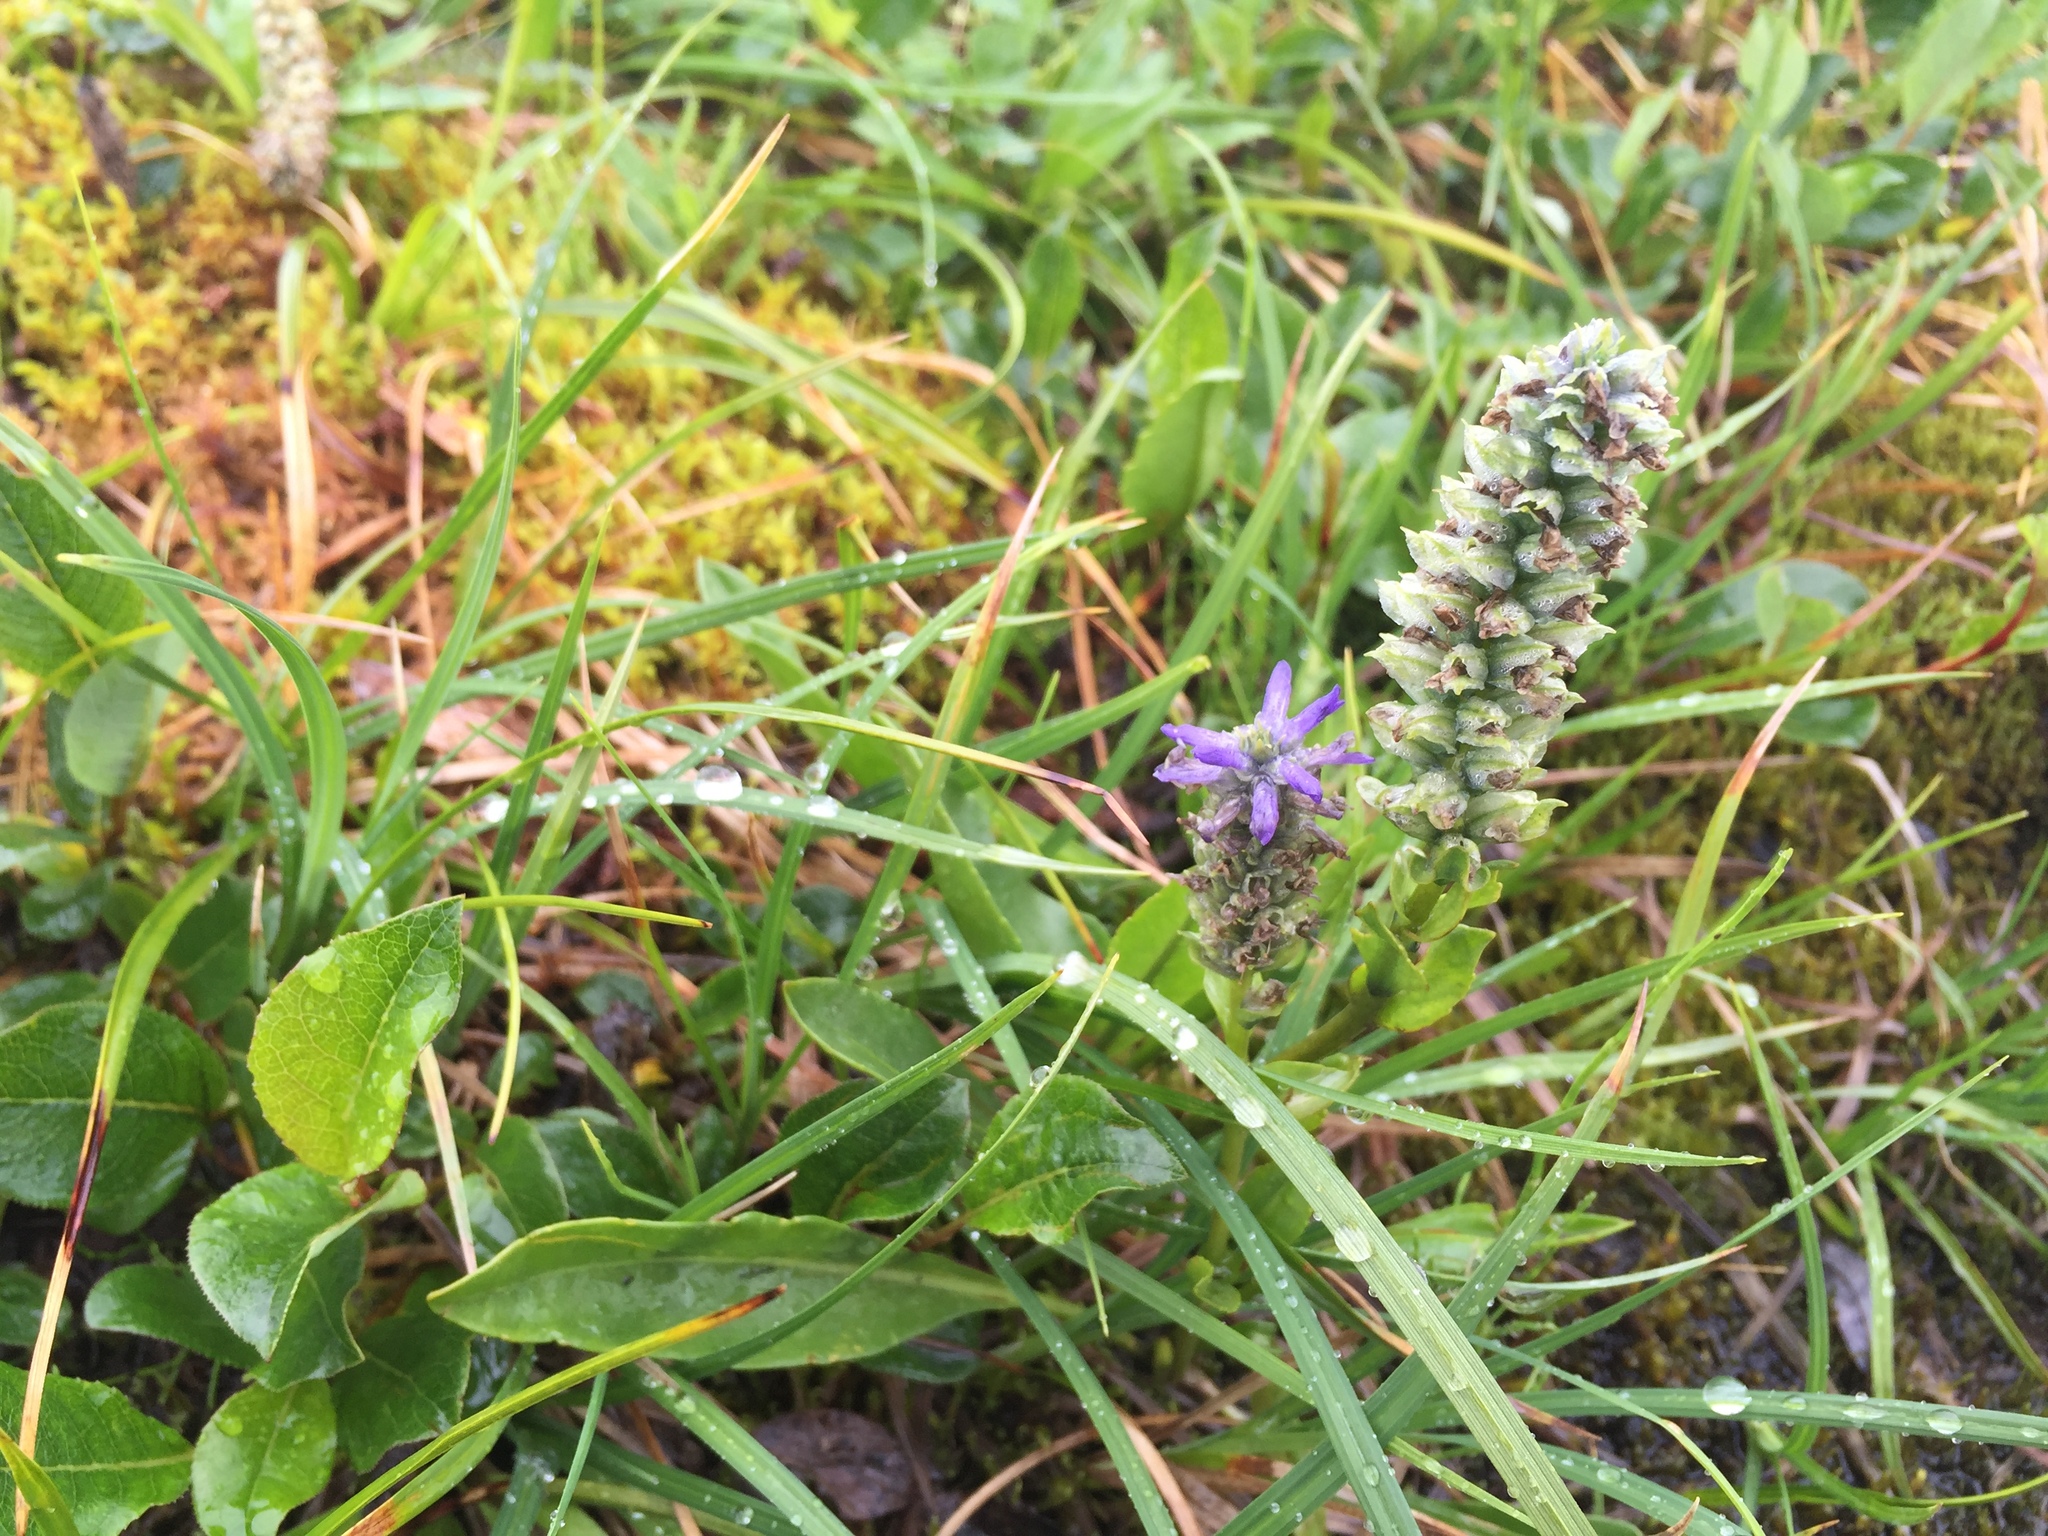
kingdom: Plantae
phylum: Tracheophyta
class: Magnoliopsida
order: Lamiales
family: Plantaginaceae
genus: Lagotis
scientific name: Lagotis glauca
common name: Glaucous weaselsnout
